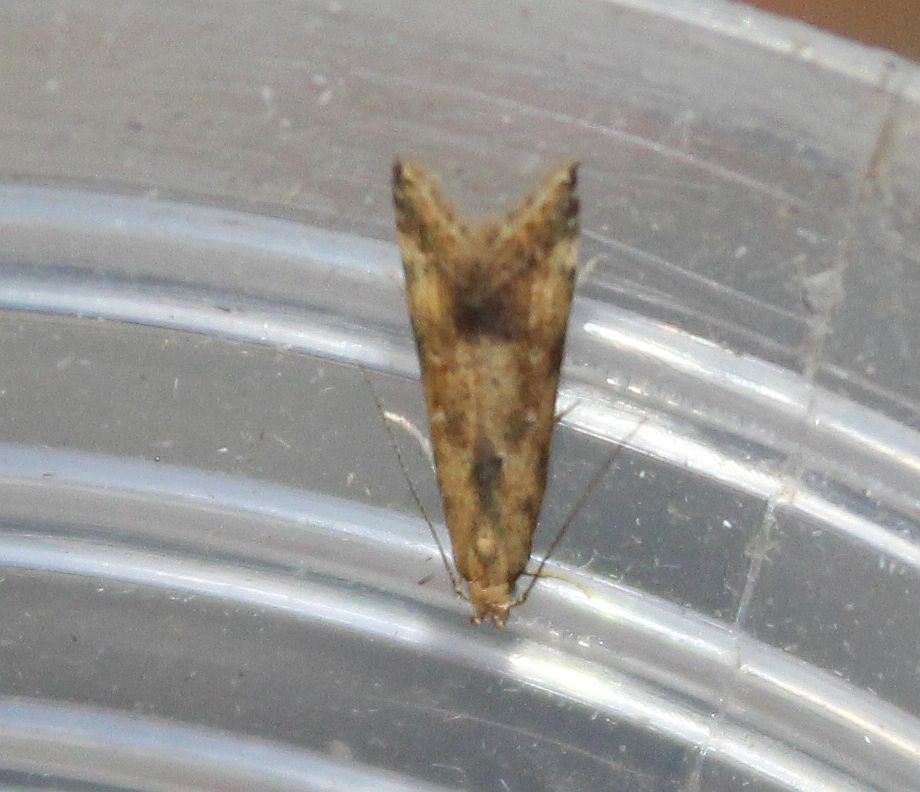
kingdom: Animalia
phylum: Arthropoda
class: Insecta
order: Lepidoptera
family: Gelechiidae
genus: Brachmia
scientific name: Brachmia blandella
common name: Gorse crest
